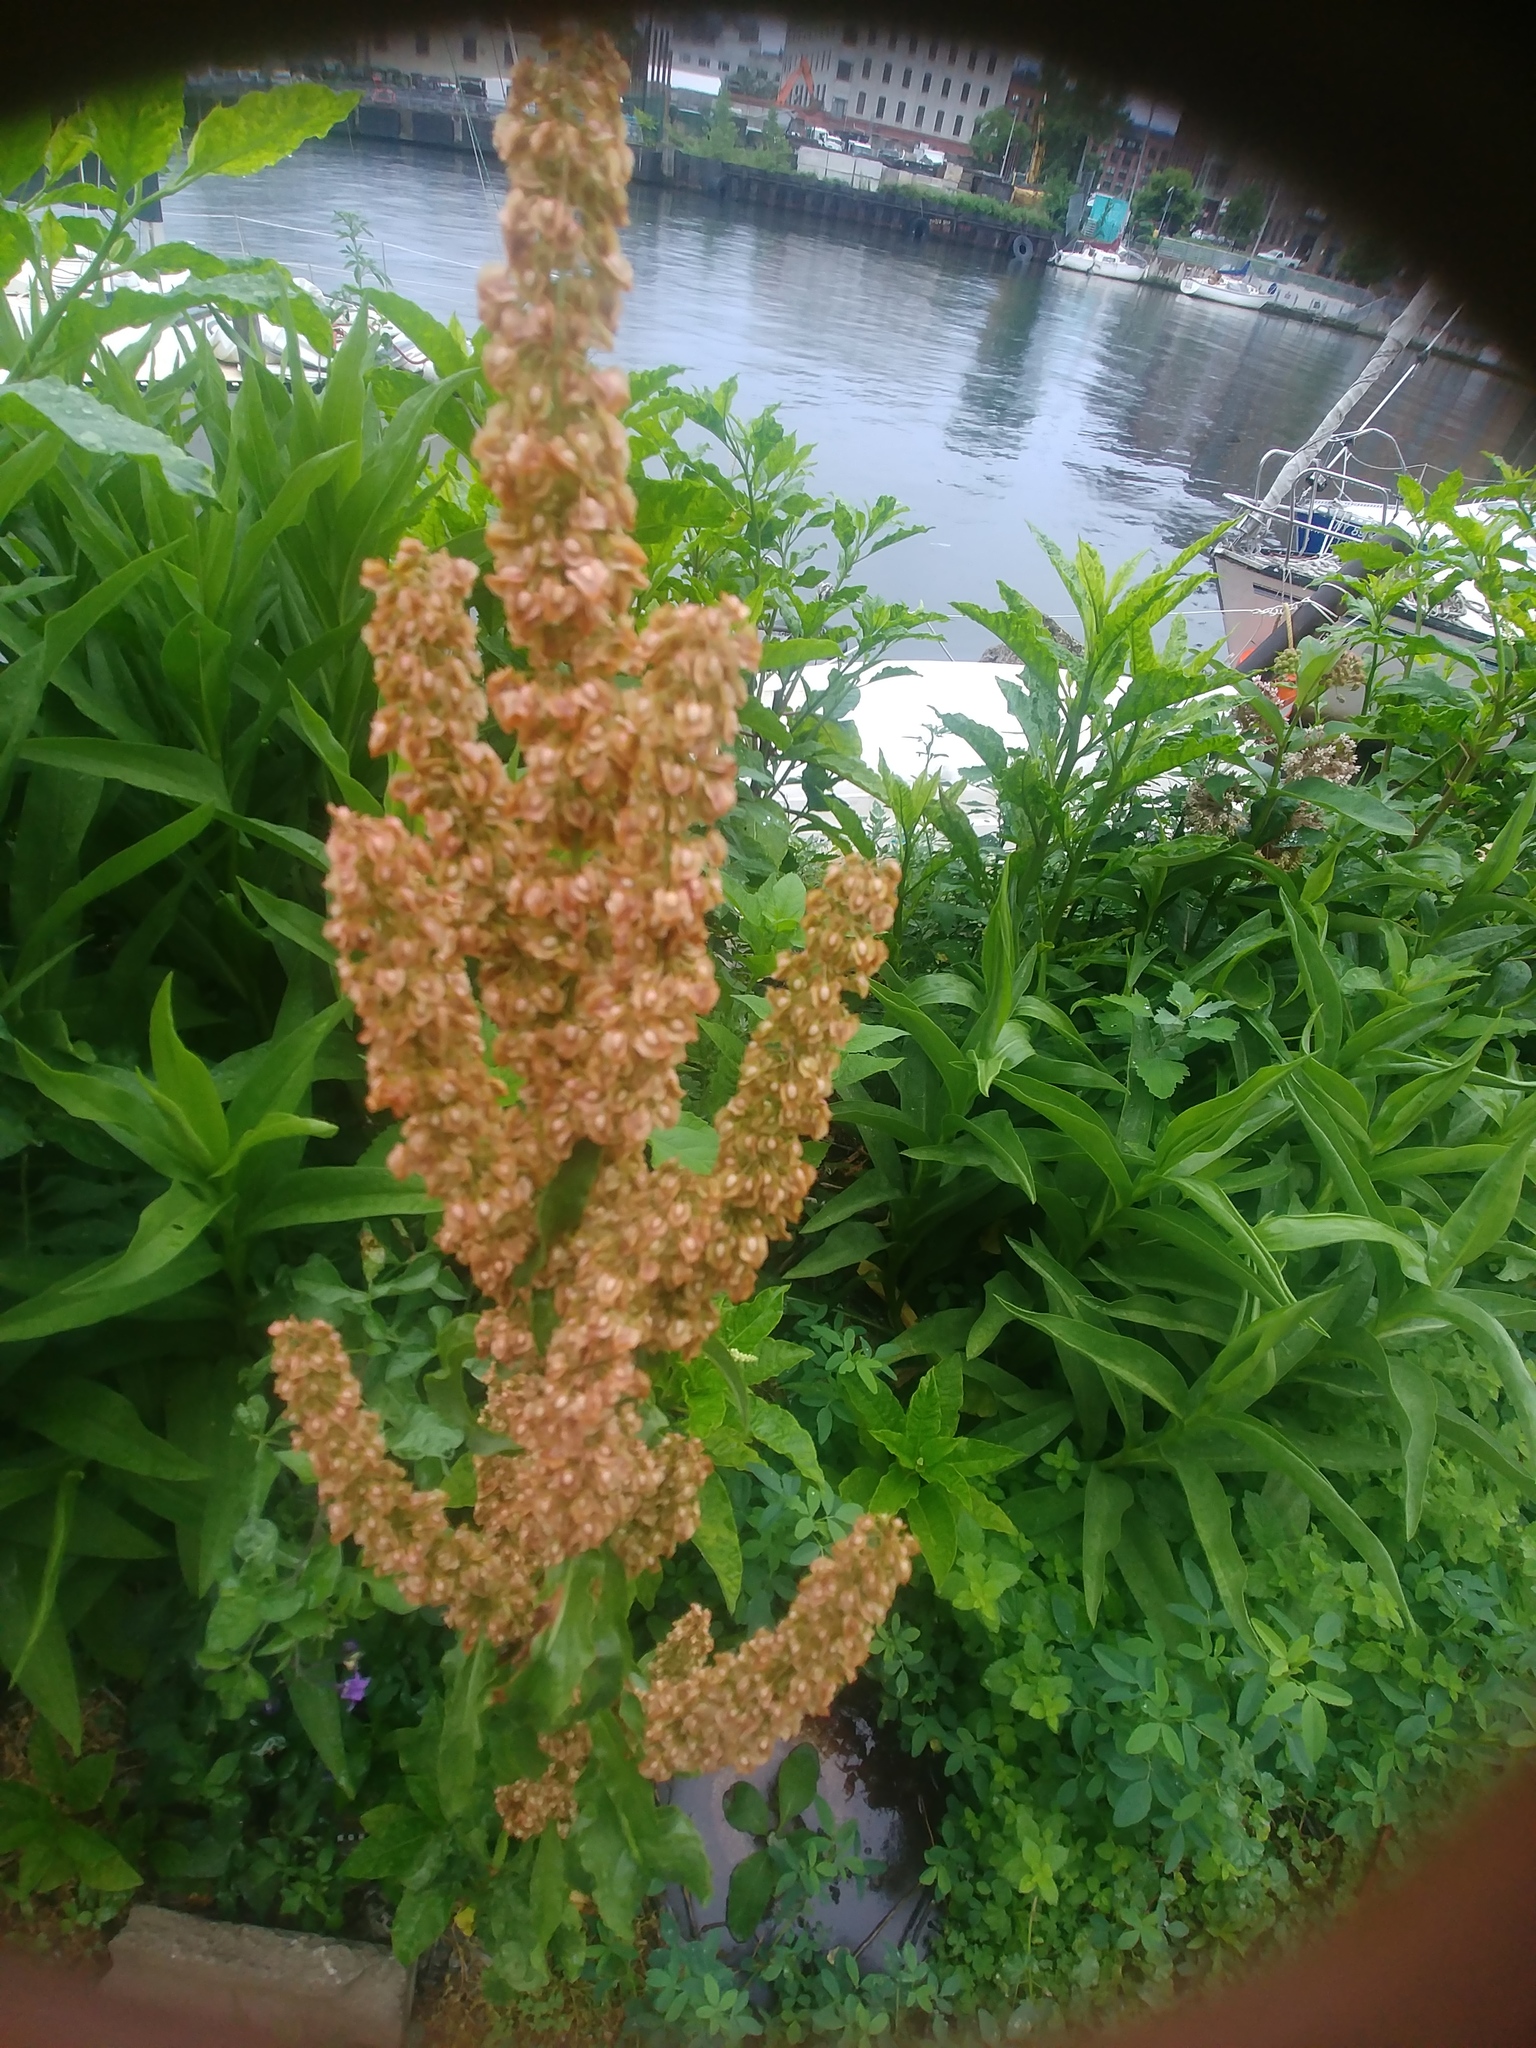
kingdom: Plantae
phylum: Tracheophyta
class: Magnoliopsida
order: Caryophyllales
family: Polygonaceae
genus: Rumex
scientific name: Rumex crispus
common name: Curled dock
